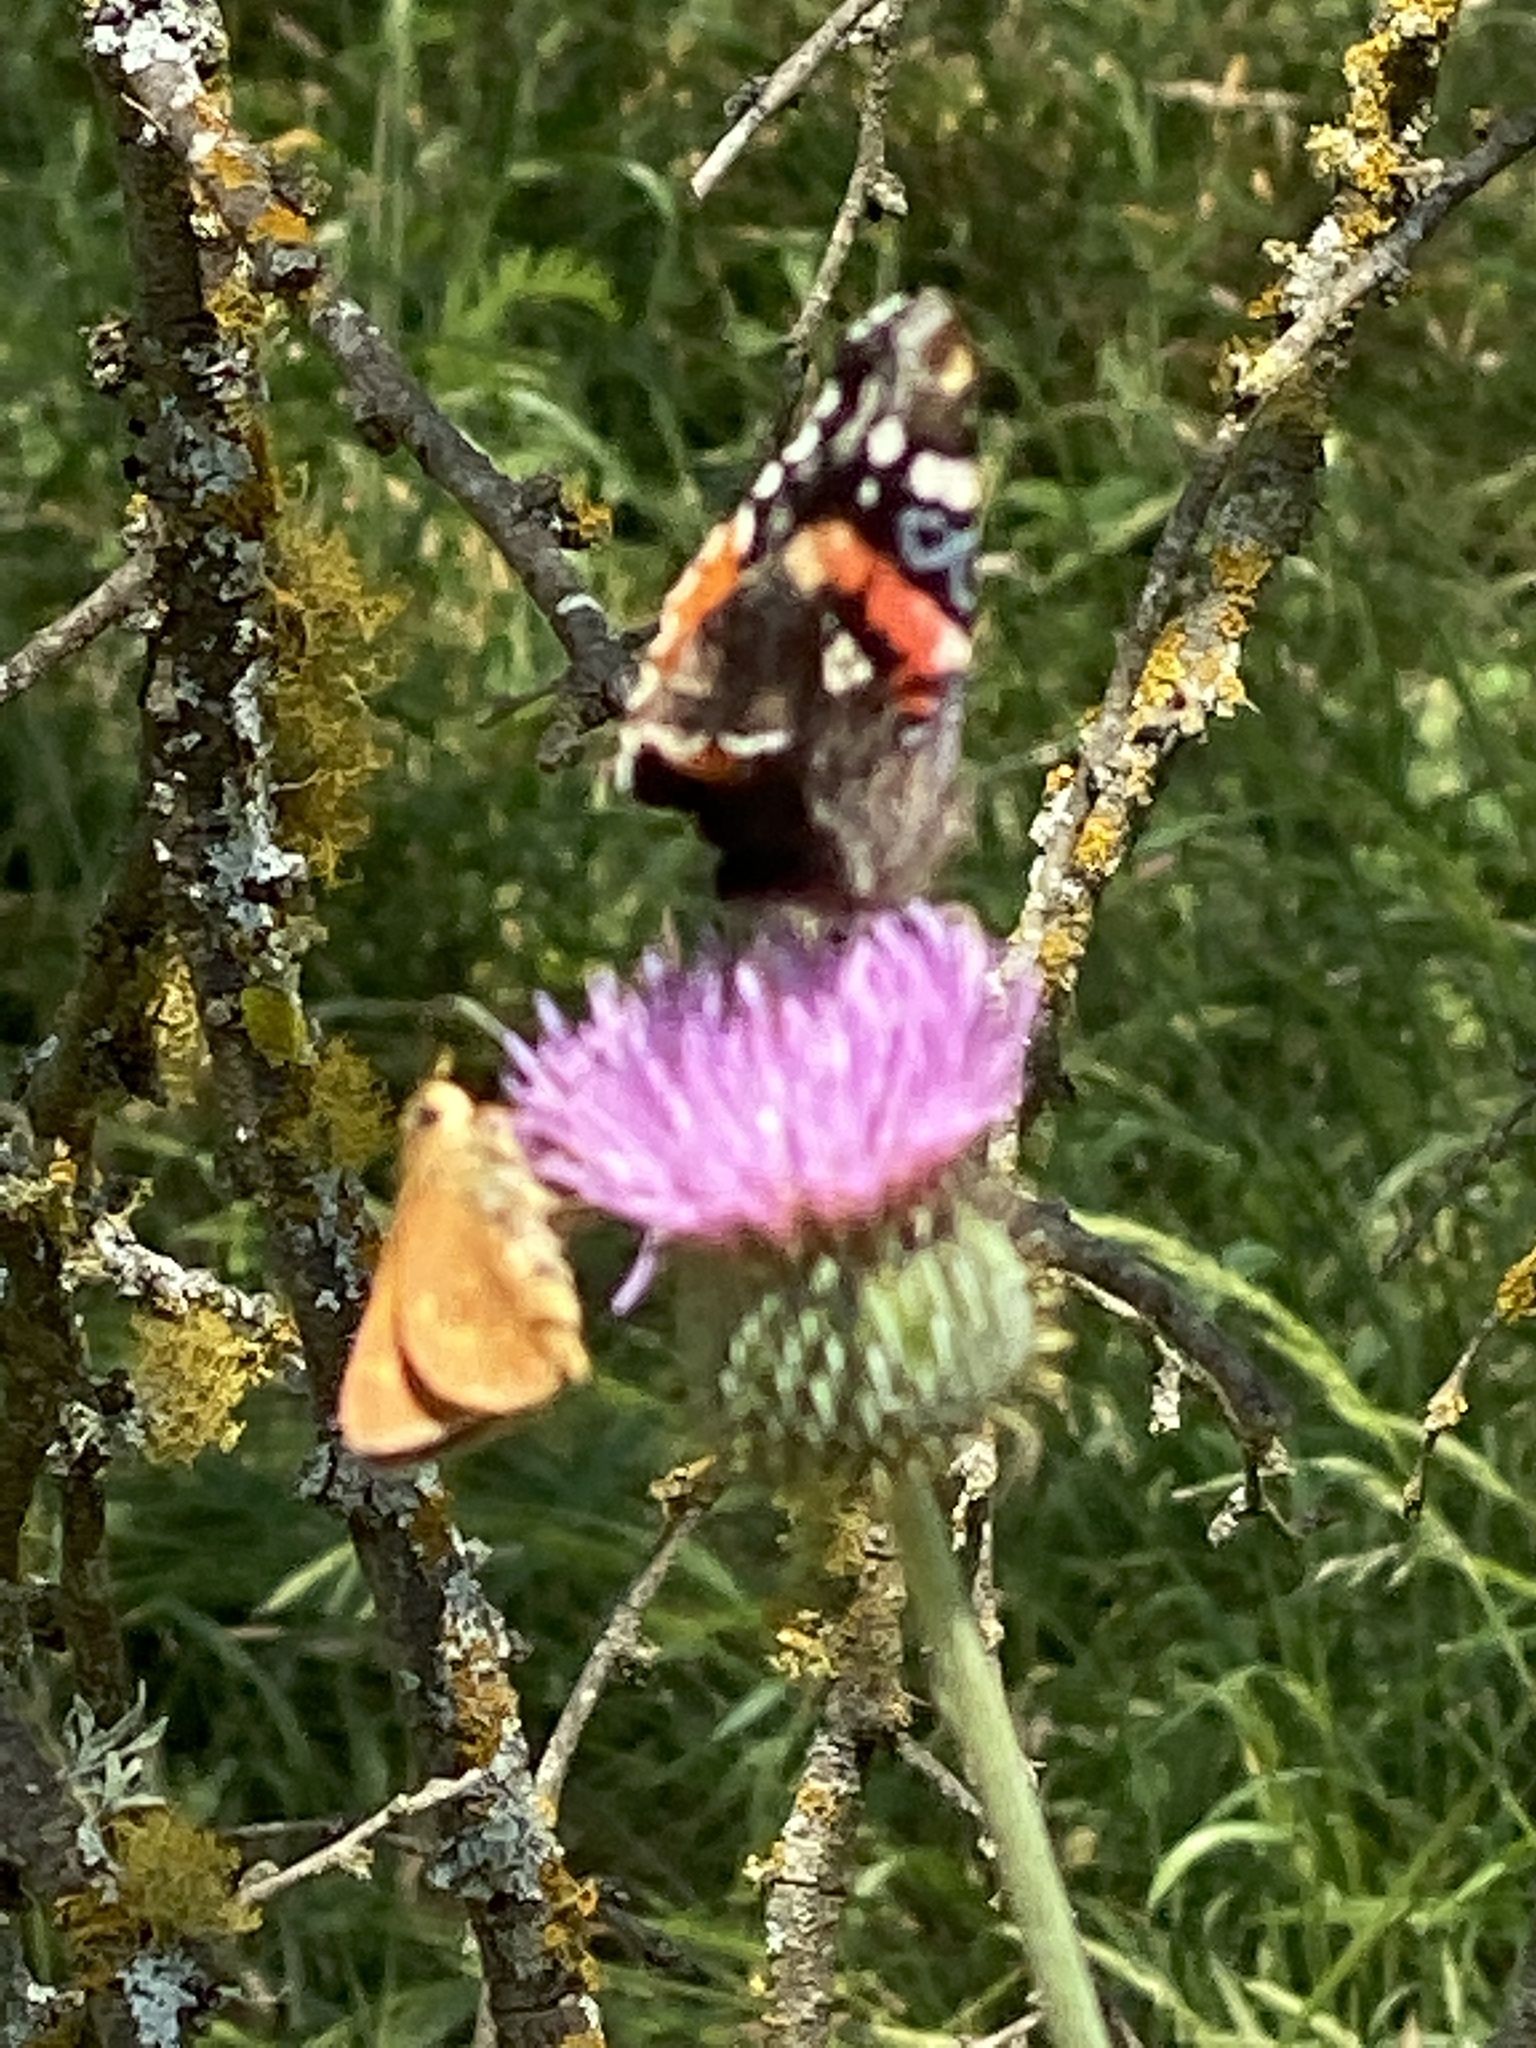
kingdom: Animalia
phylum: Arthropoda
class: Insecta
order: Lepidoptera
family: Nymphalidae
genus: Vanessa
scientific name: Vanessa atalanta
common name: Red admiral
